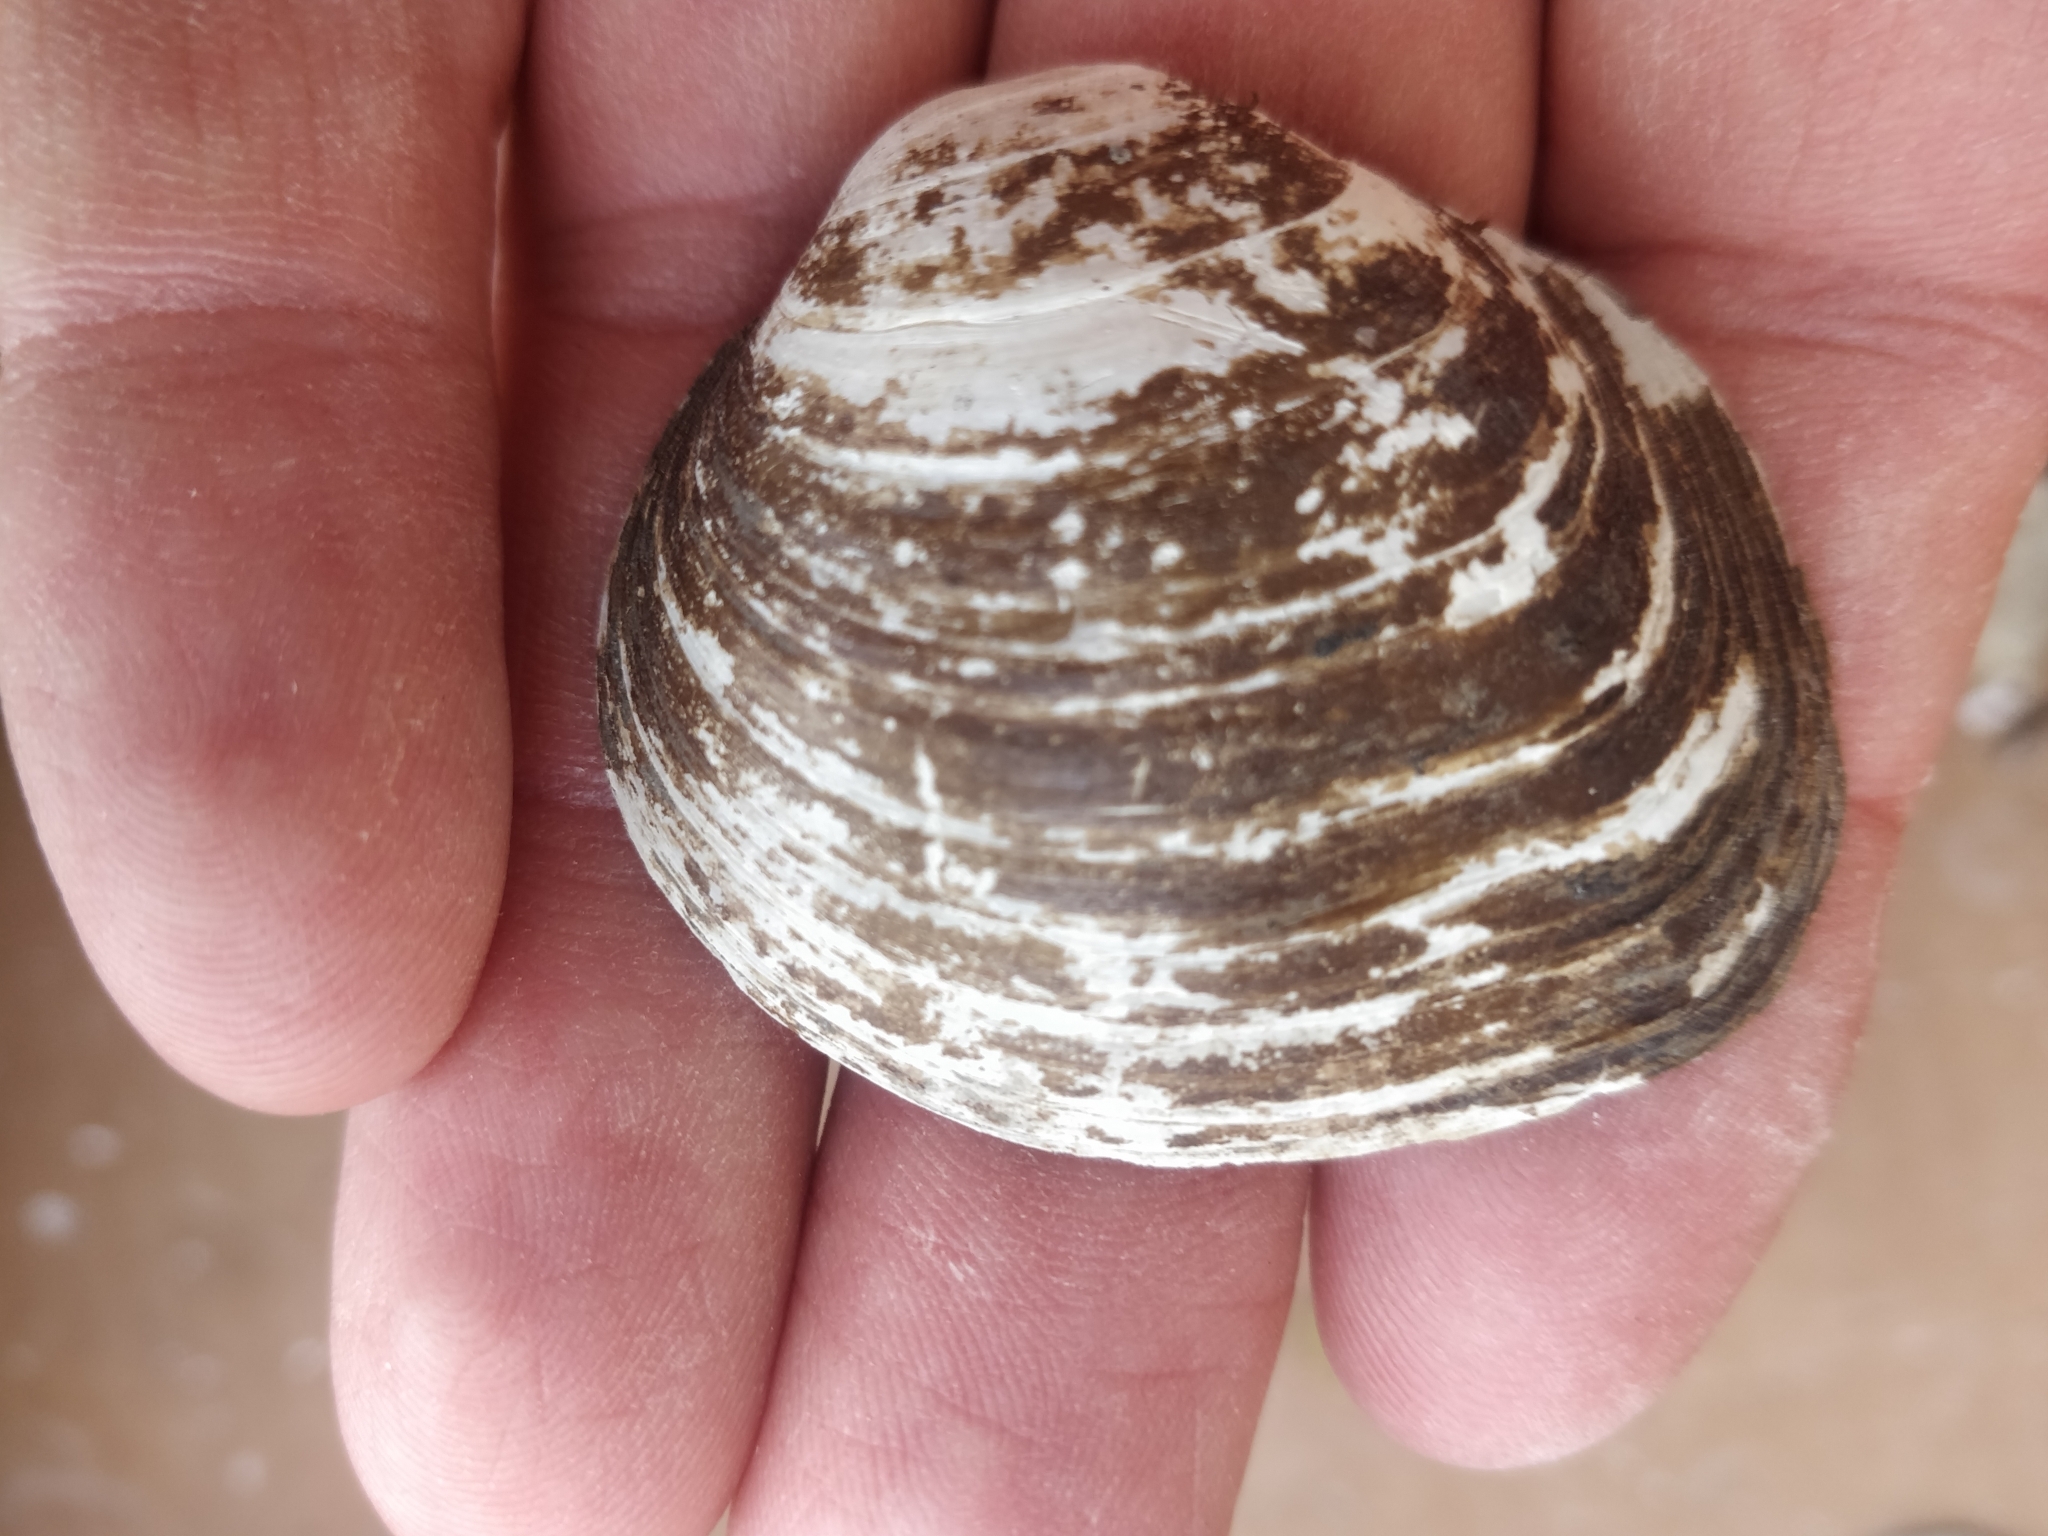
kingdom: Animalia
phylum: Mollusca
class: Bivalvia
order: Unionida
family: Unionidae
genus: Cyclonaias
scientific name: Cyclonaias pustulosa
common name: Pimpleback
